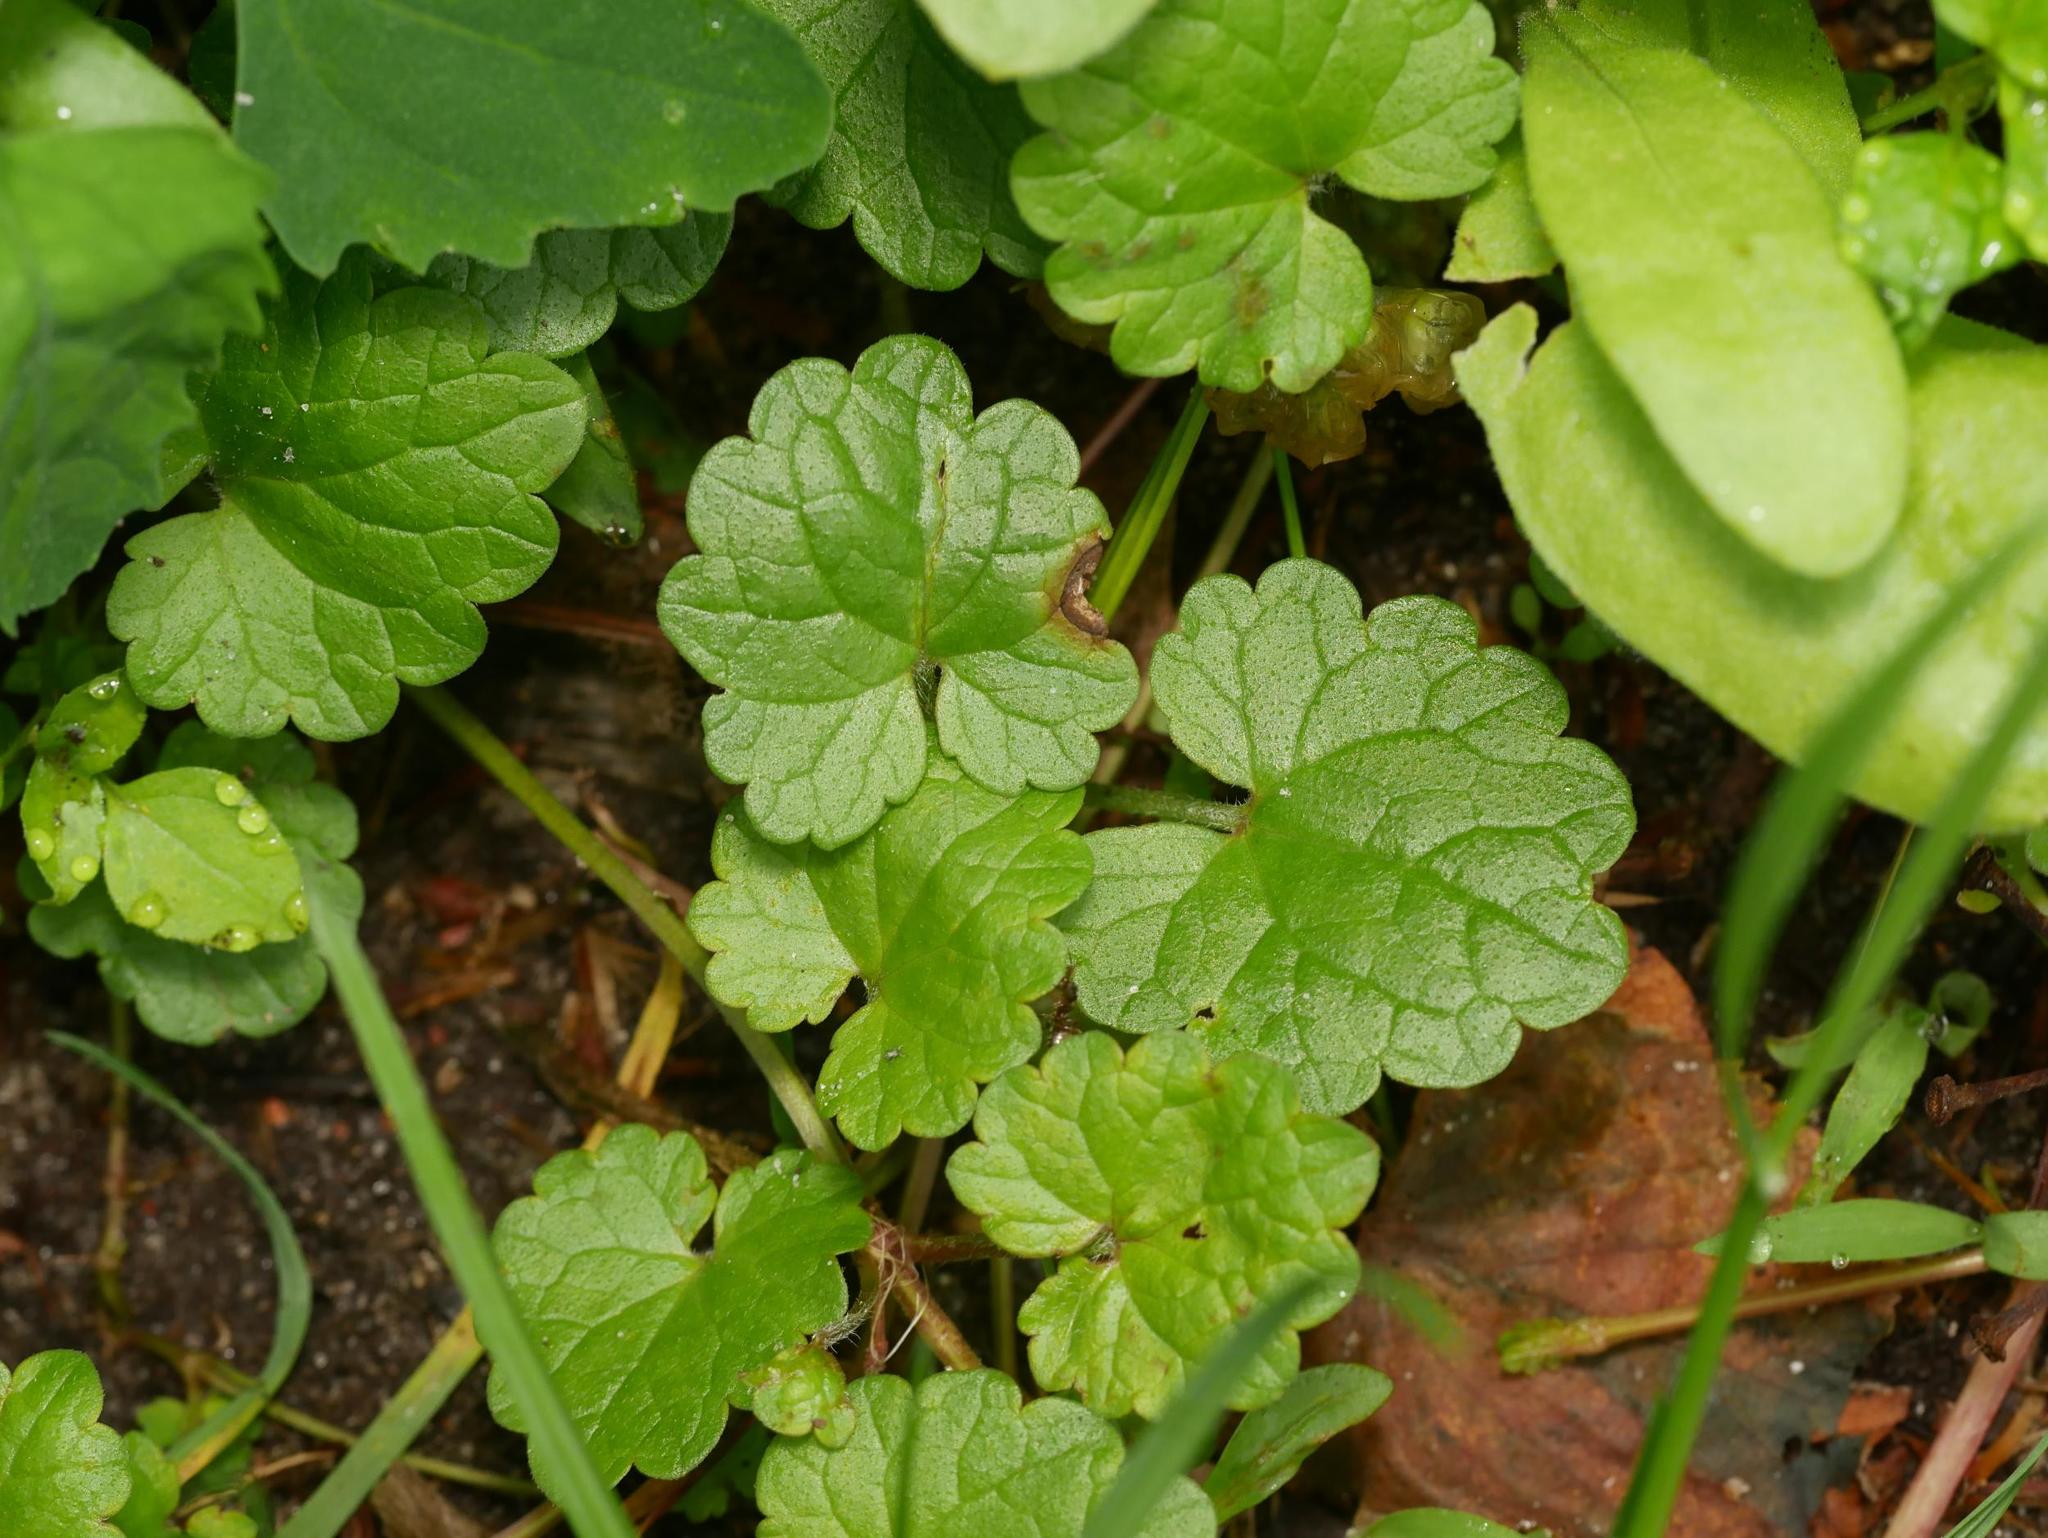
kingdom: Plantae
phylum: Tracheophyta
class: Magnoliopsida
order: Lamiales
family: Lamiaceae
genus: Glechoma
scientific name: Glechoma hederacea
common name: Ground ivy
